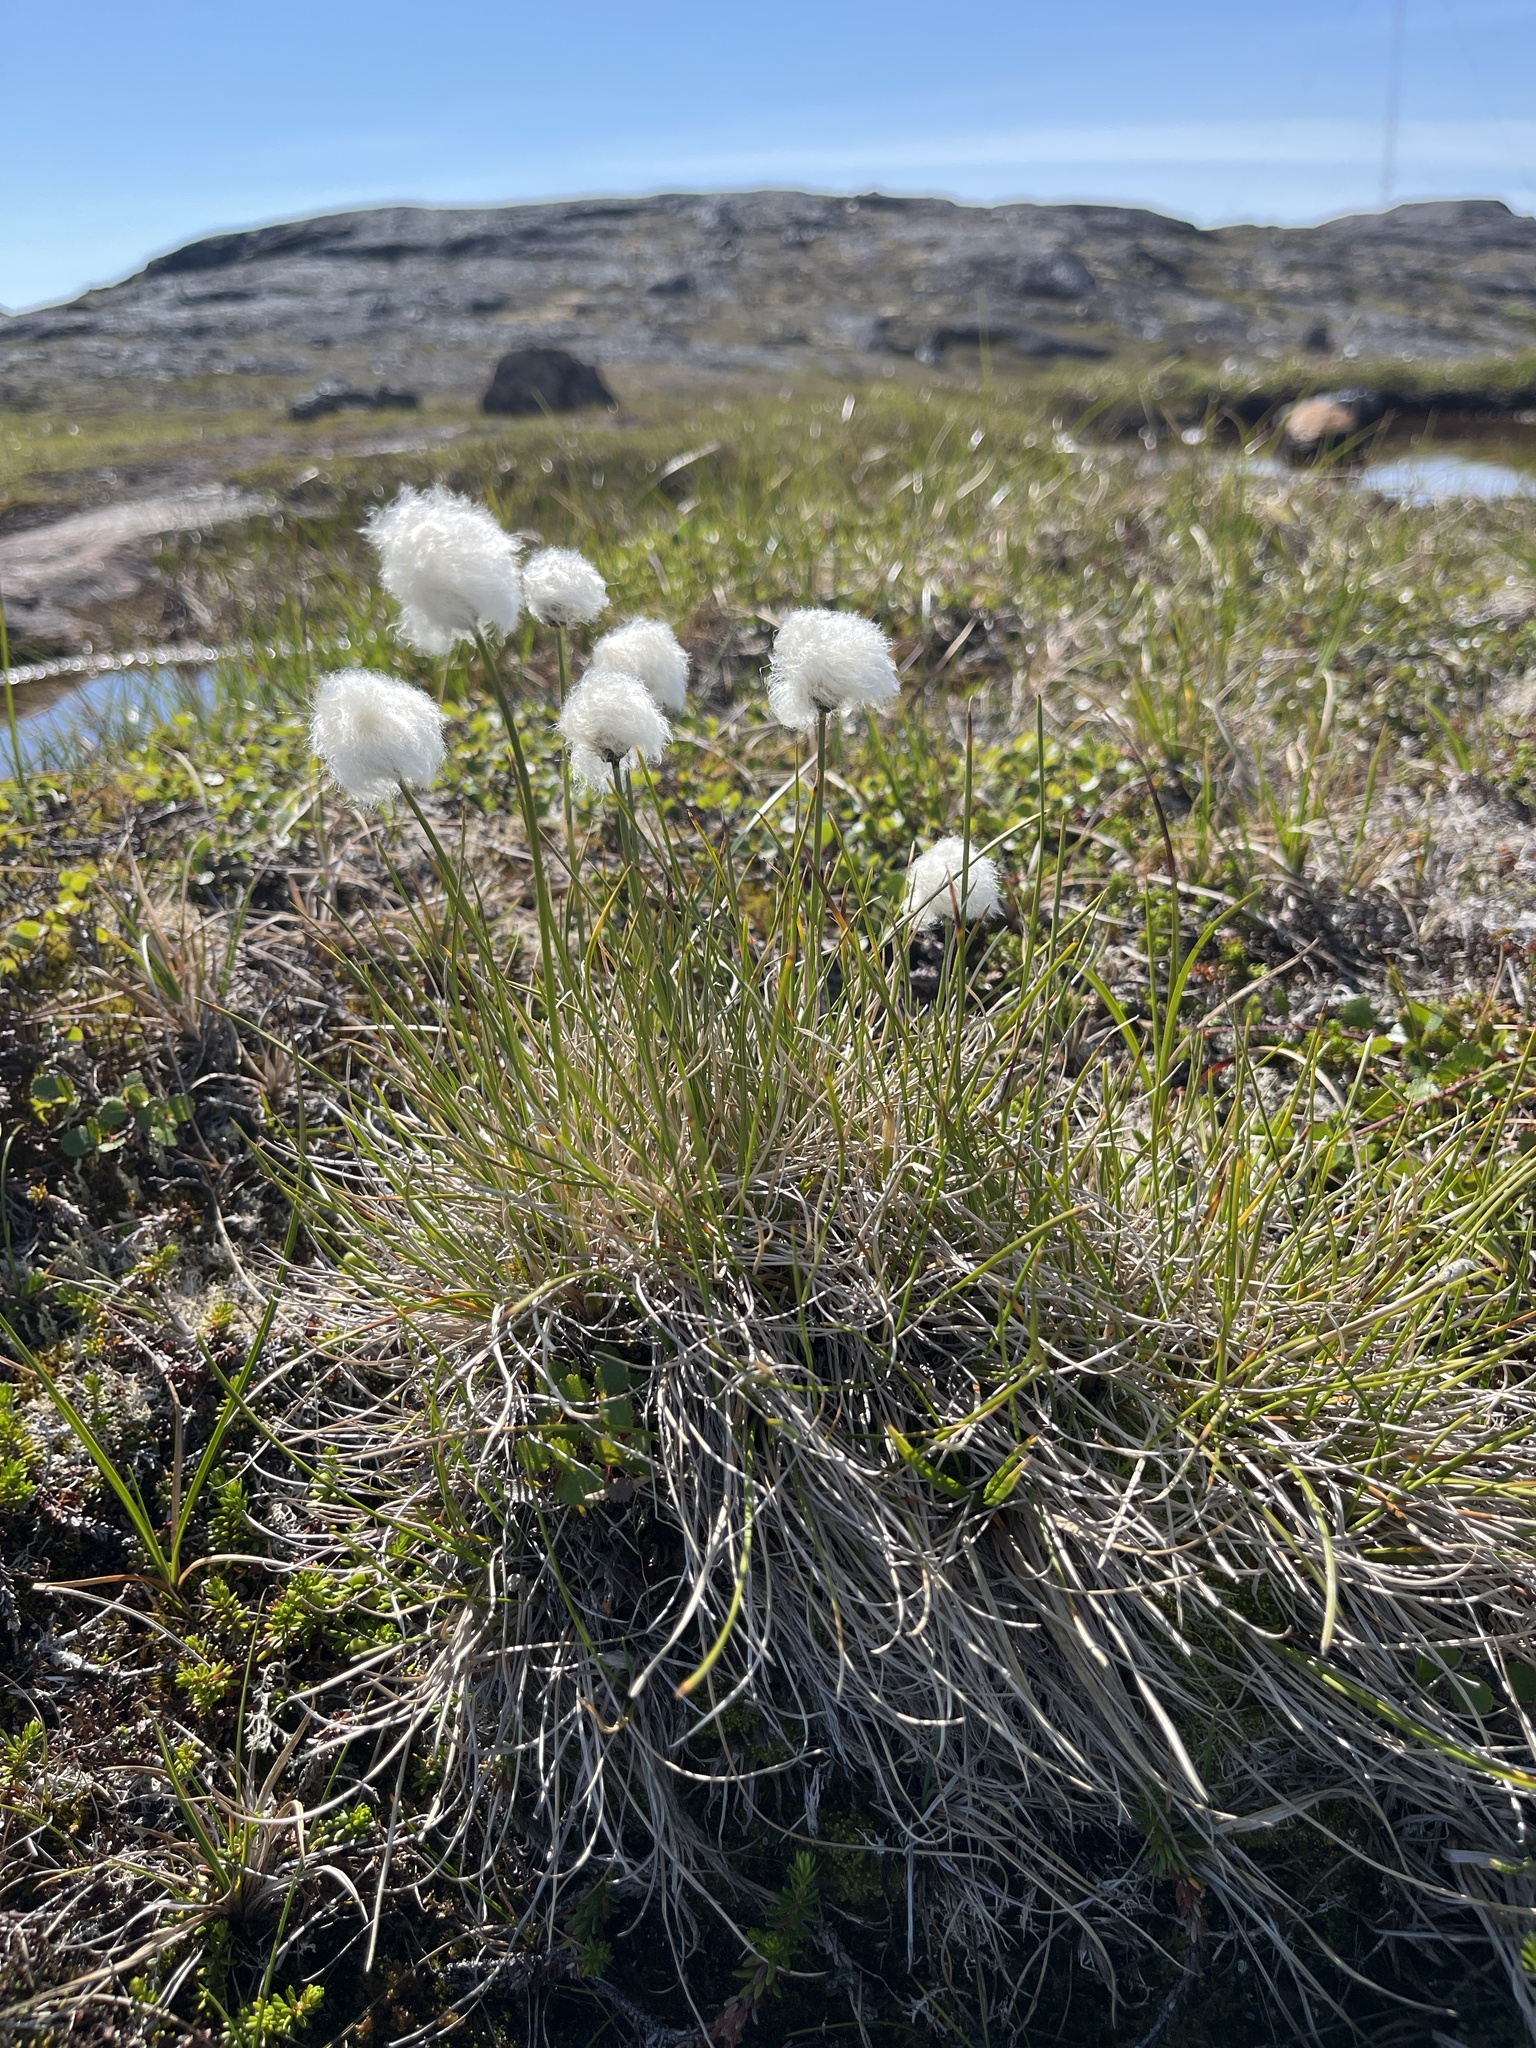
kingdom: Plantae
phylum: Tracheophyta
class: Liliopsida
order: Poales
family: Cyperaceae
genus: Eriophorum
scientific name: Eriophorum vaginatum
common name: Hare's-tail cottongrass
